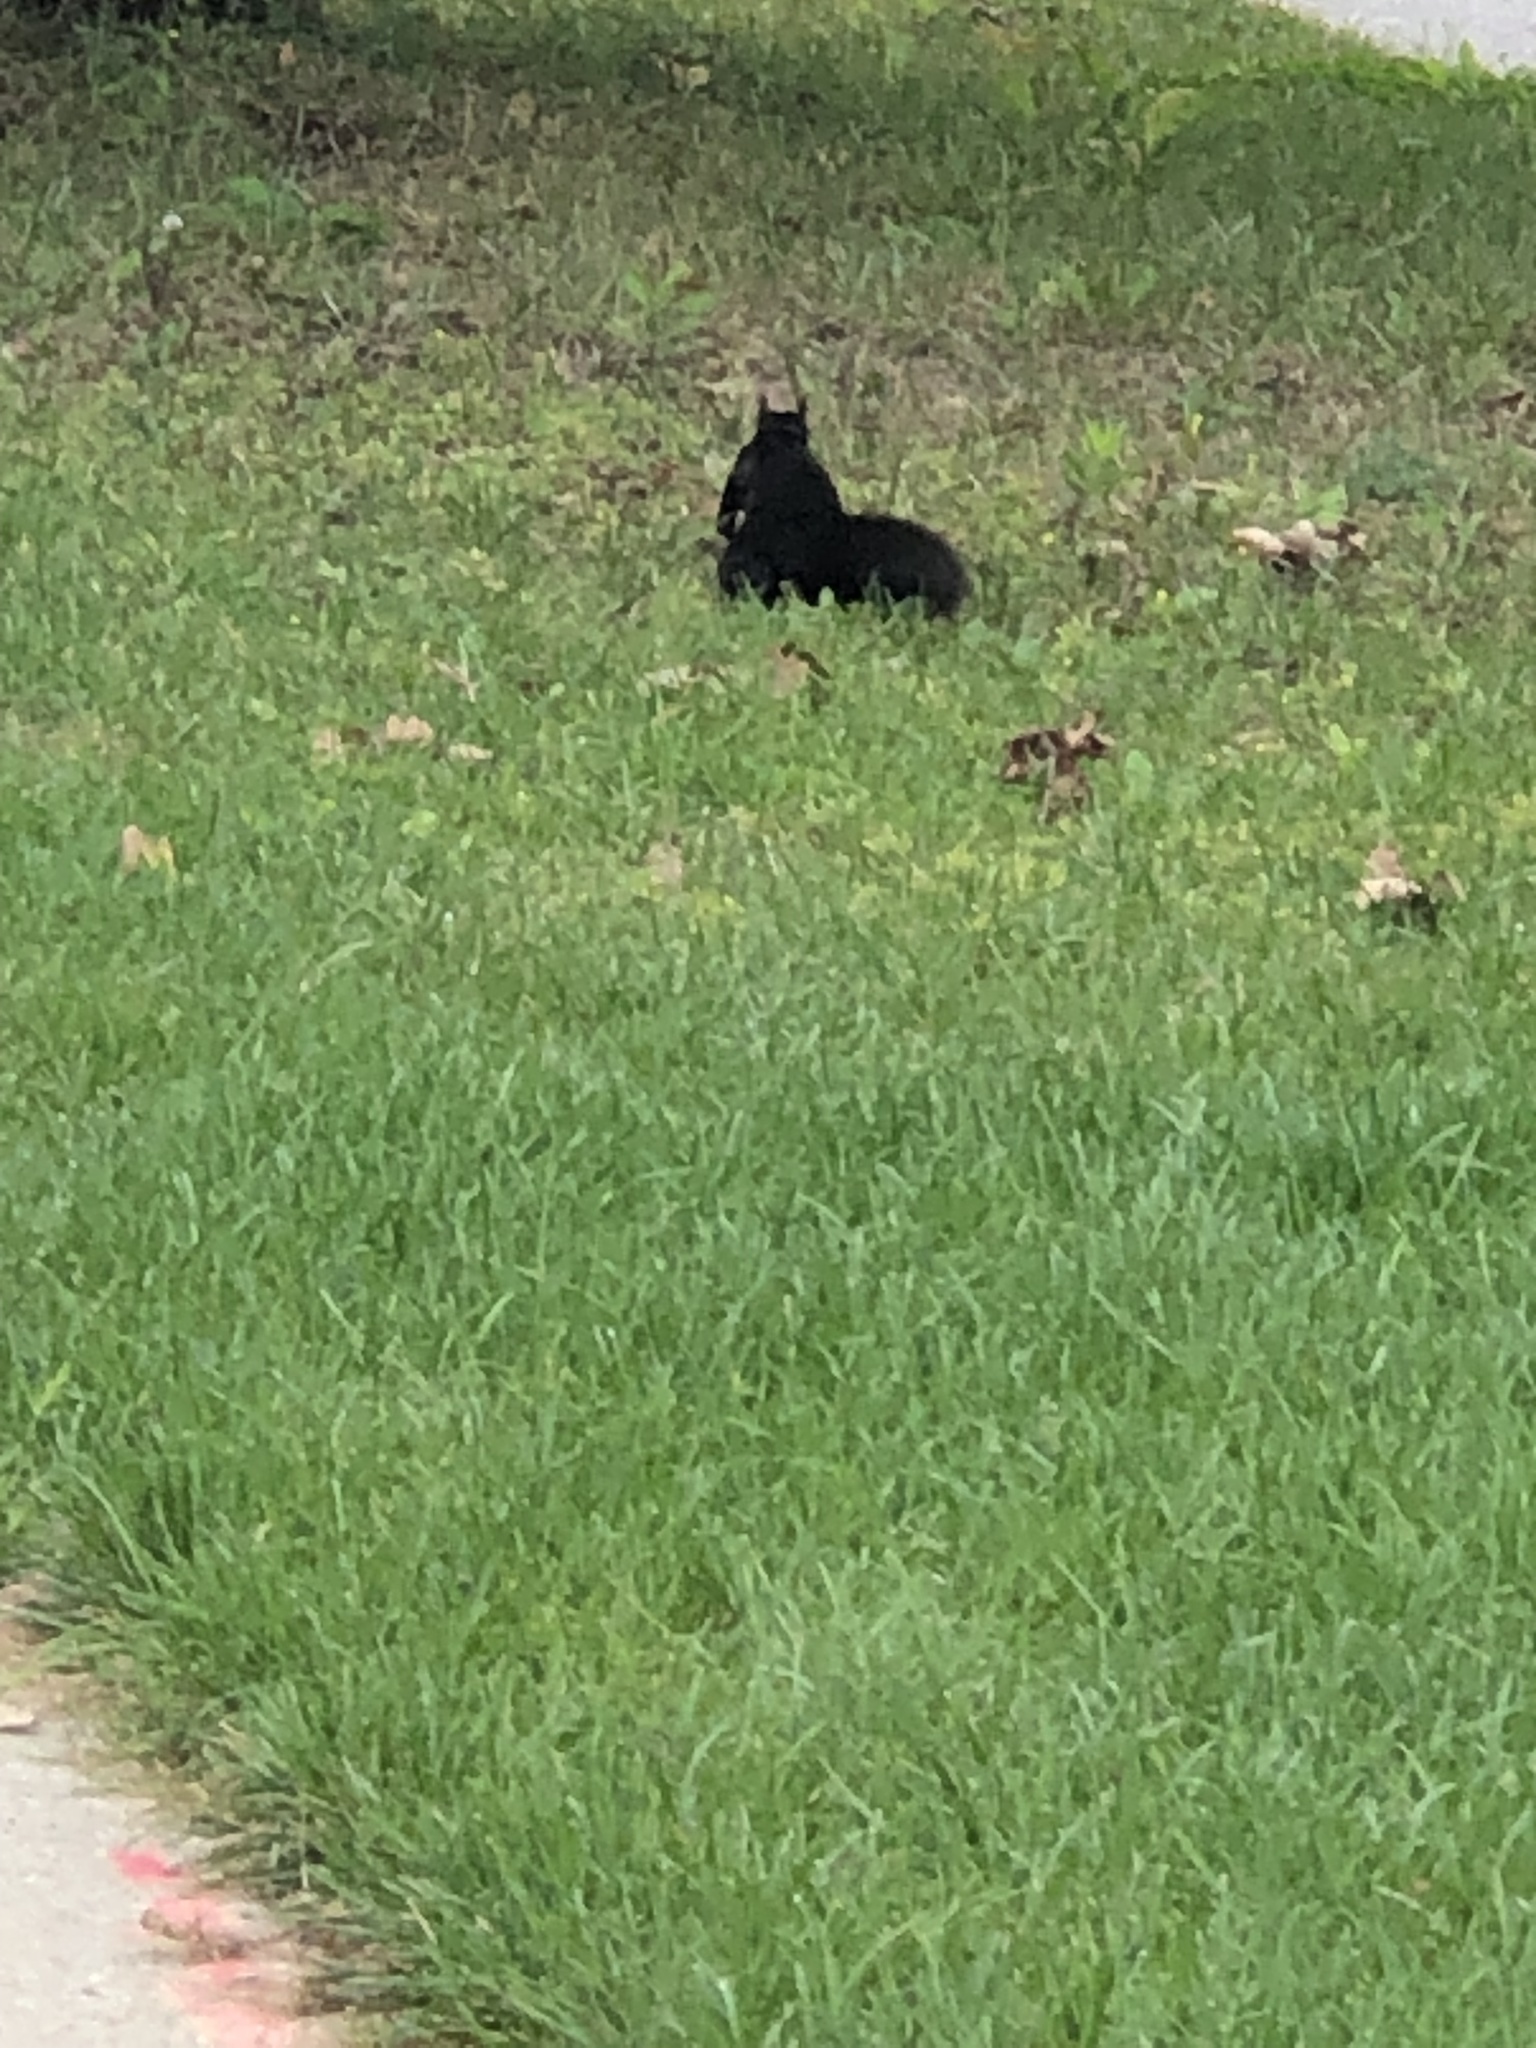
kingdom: Animalia
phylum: Chordata
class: Mammalia
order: Rodentia
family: Sciuridae
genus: Sciurus
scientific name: Sciurus carolinensis
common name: Eastern gray squirrel
